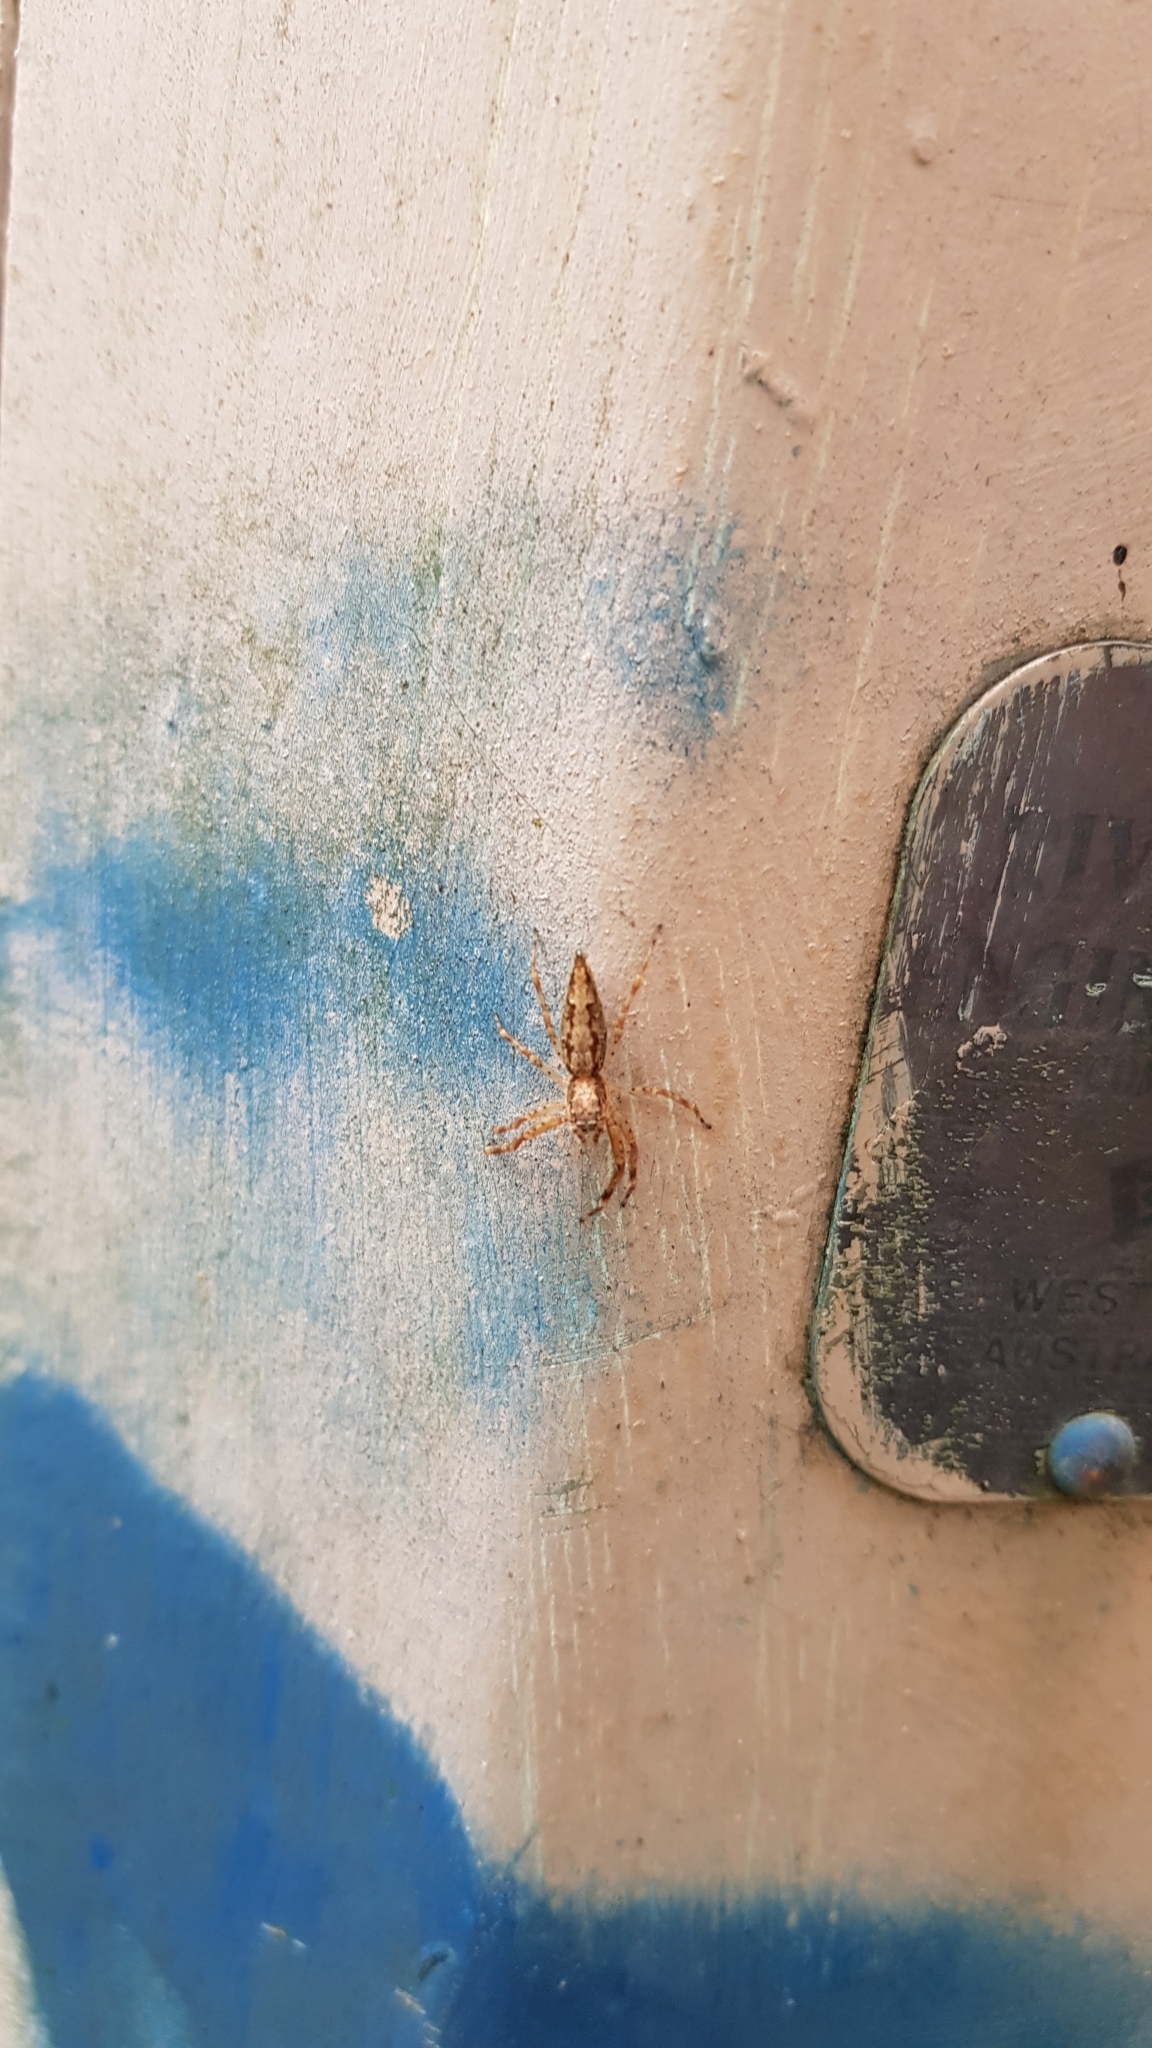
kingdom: Animalia
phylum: Arthropoda
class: Arachnida
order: Araneae
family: Salticidae
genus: Helpis
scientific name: Helpis minitabunda
